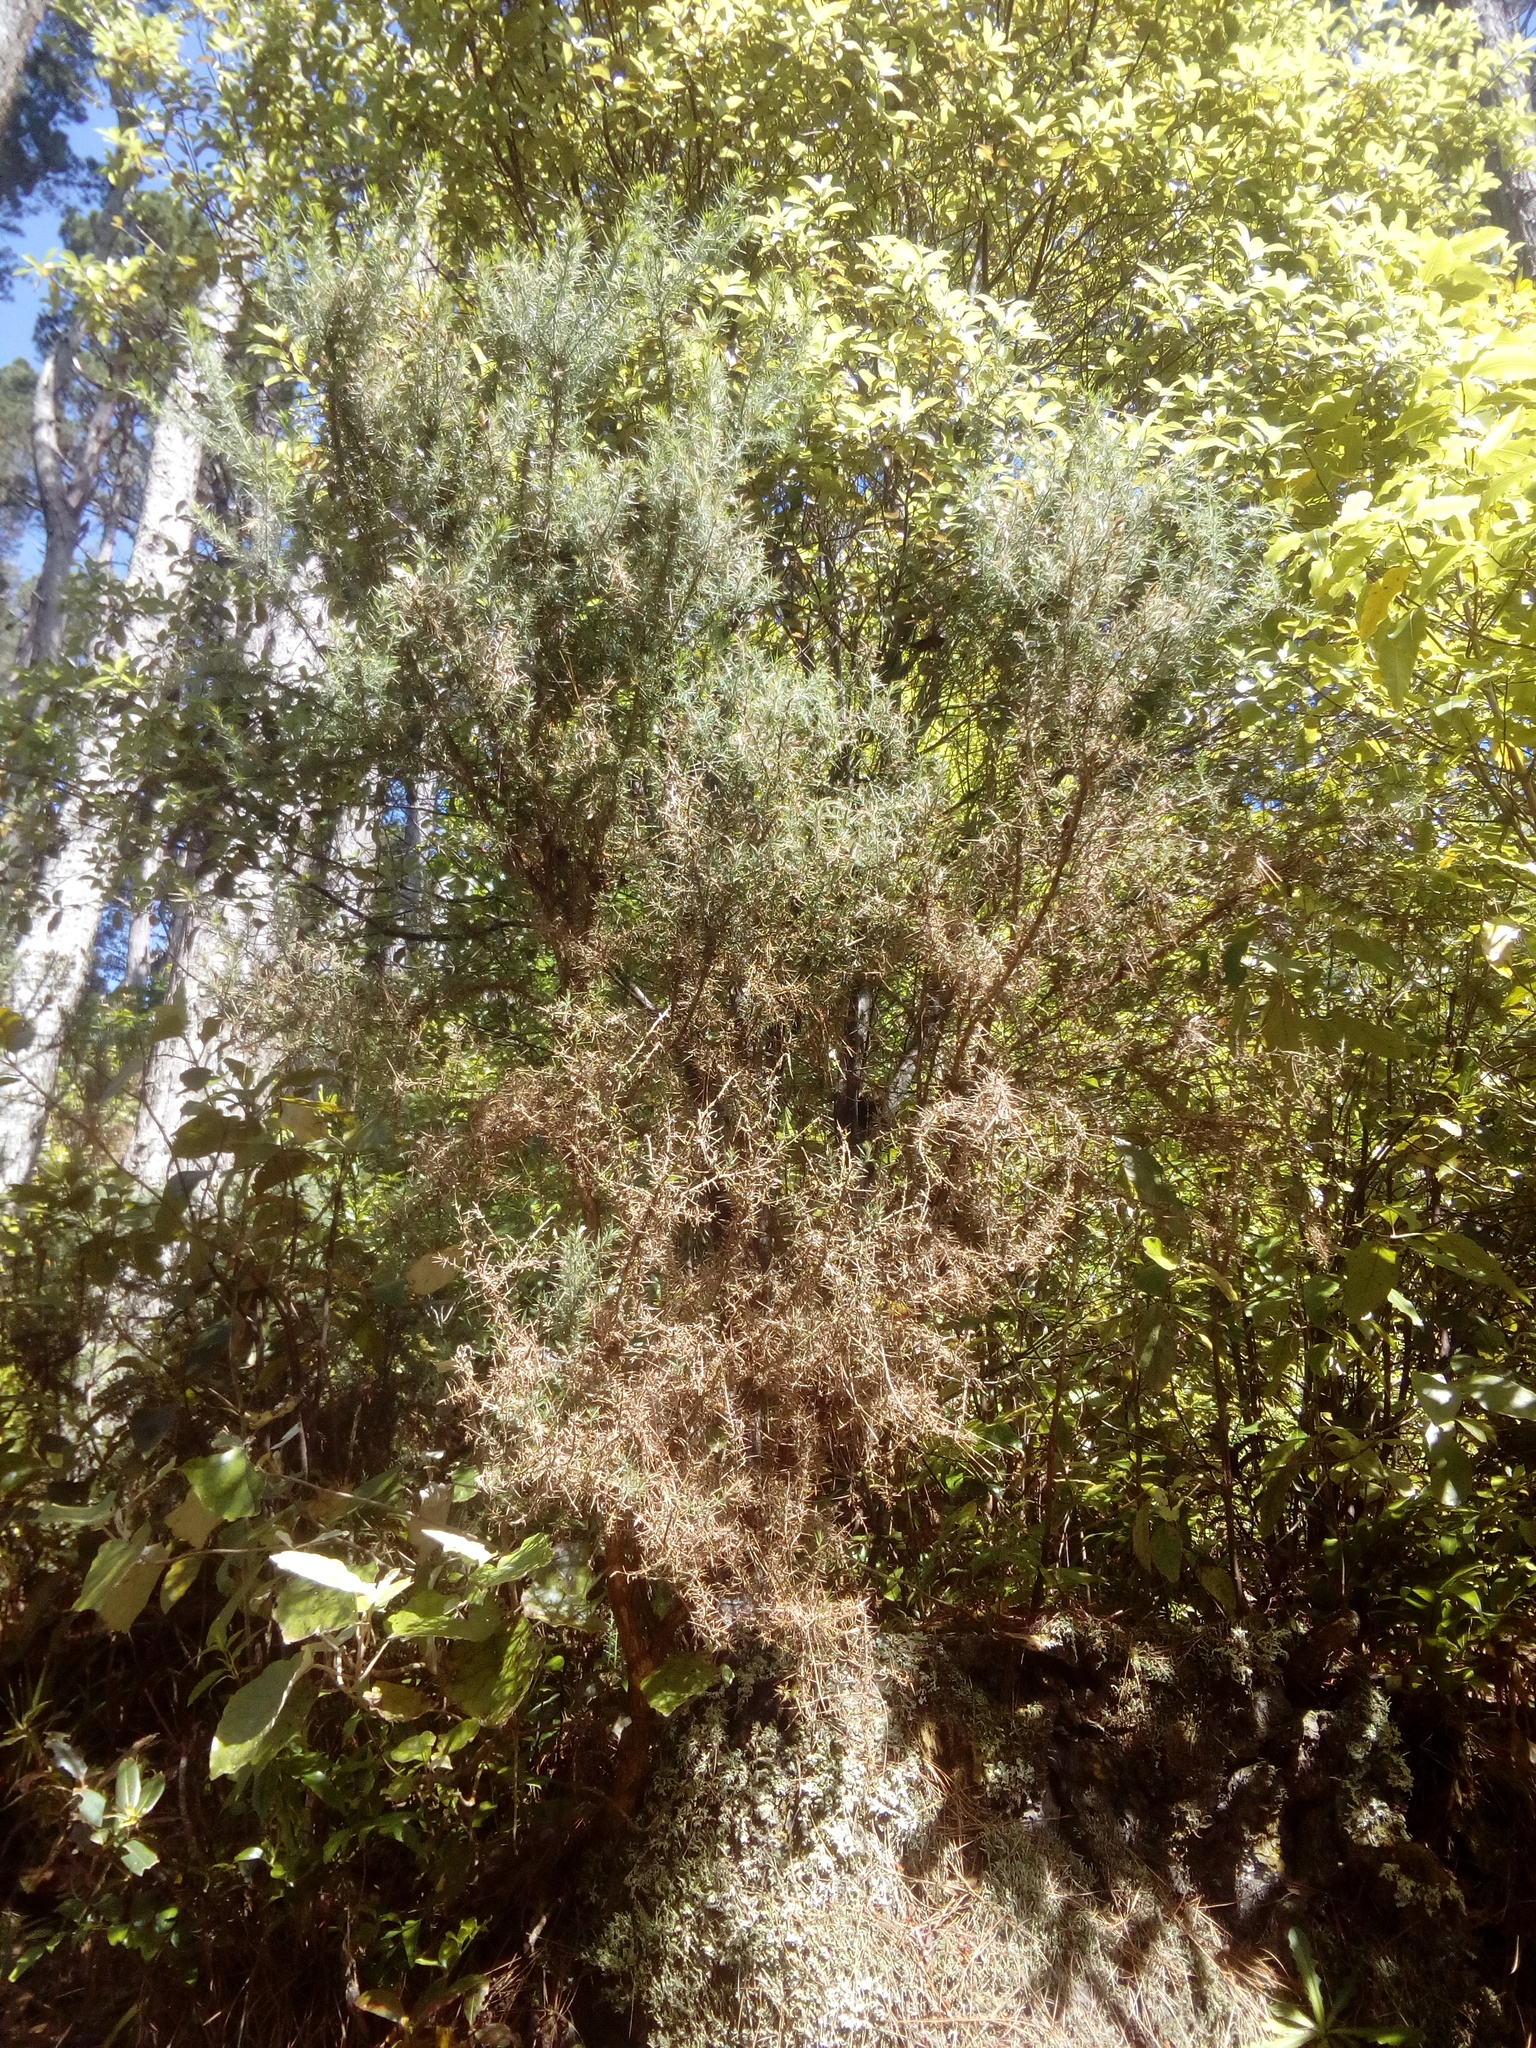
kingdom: Plantae
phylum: Tracheophyta
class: Magnoliopsida
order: Fabales
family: Fabaceae
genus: Ulex
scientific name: Ulex europaeus
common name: Common gorse
